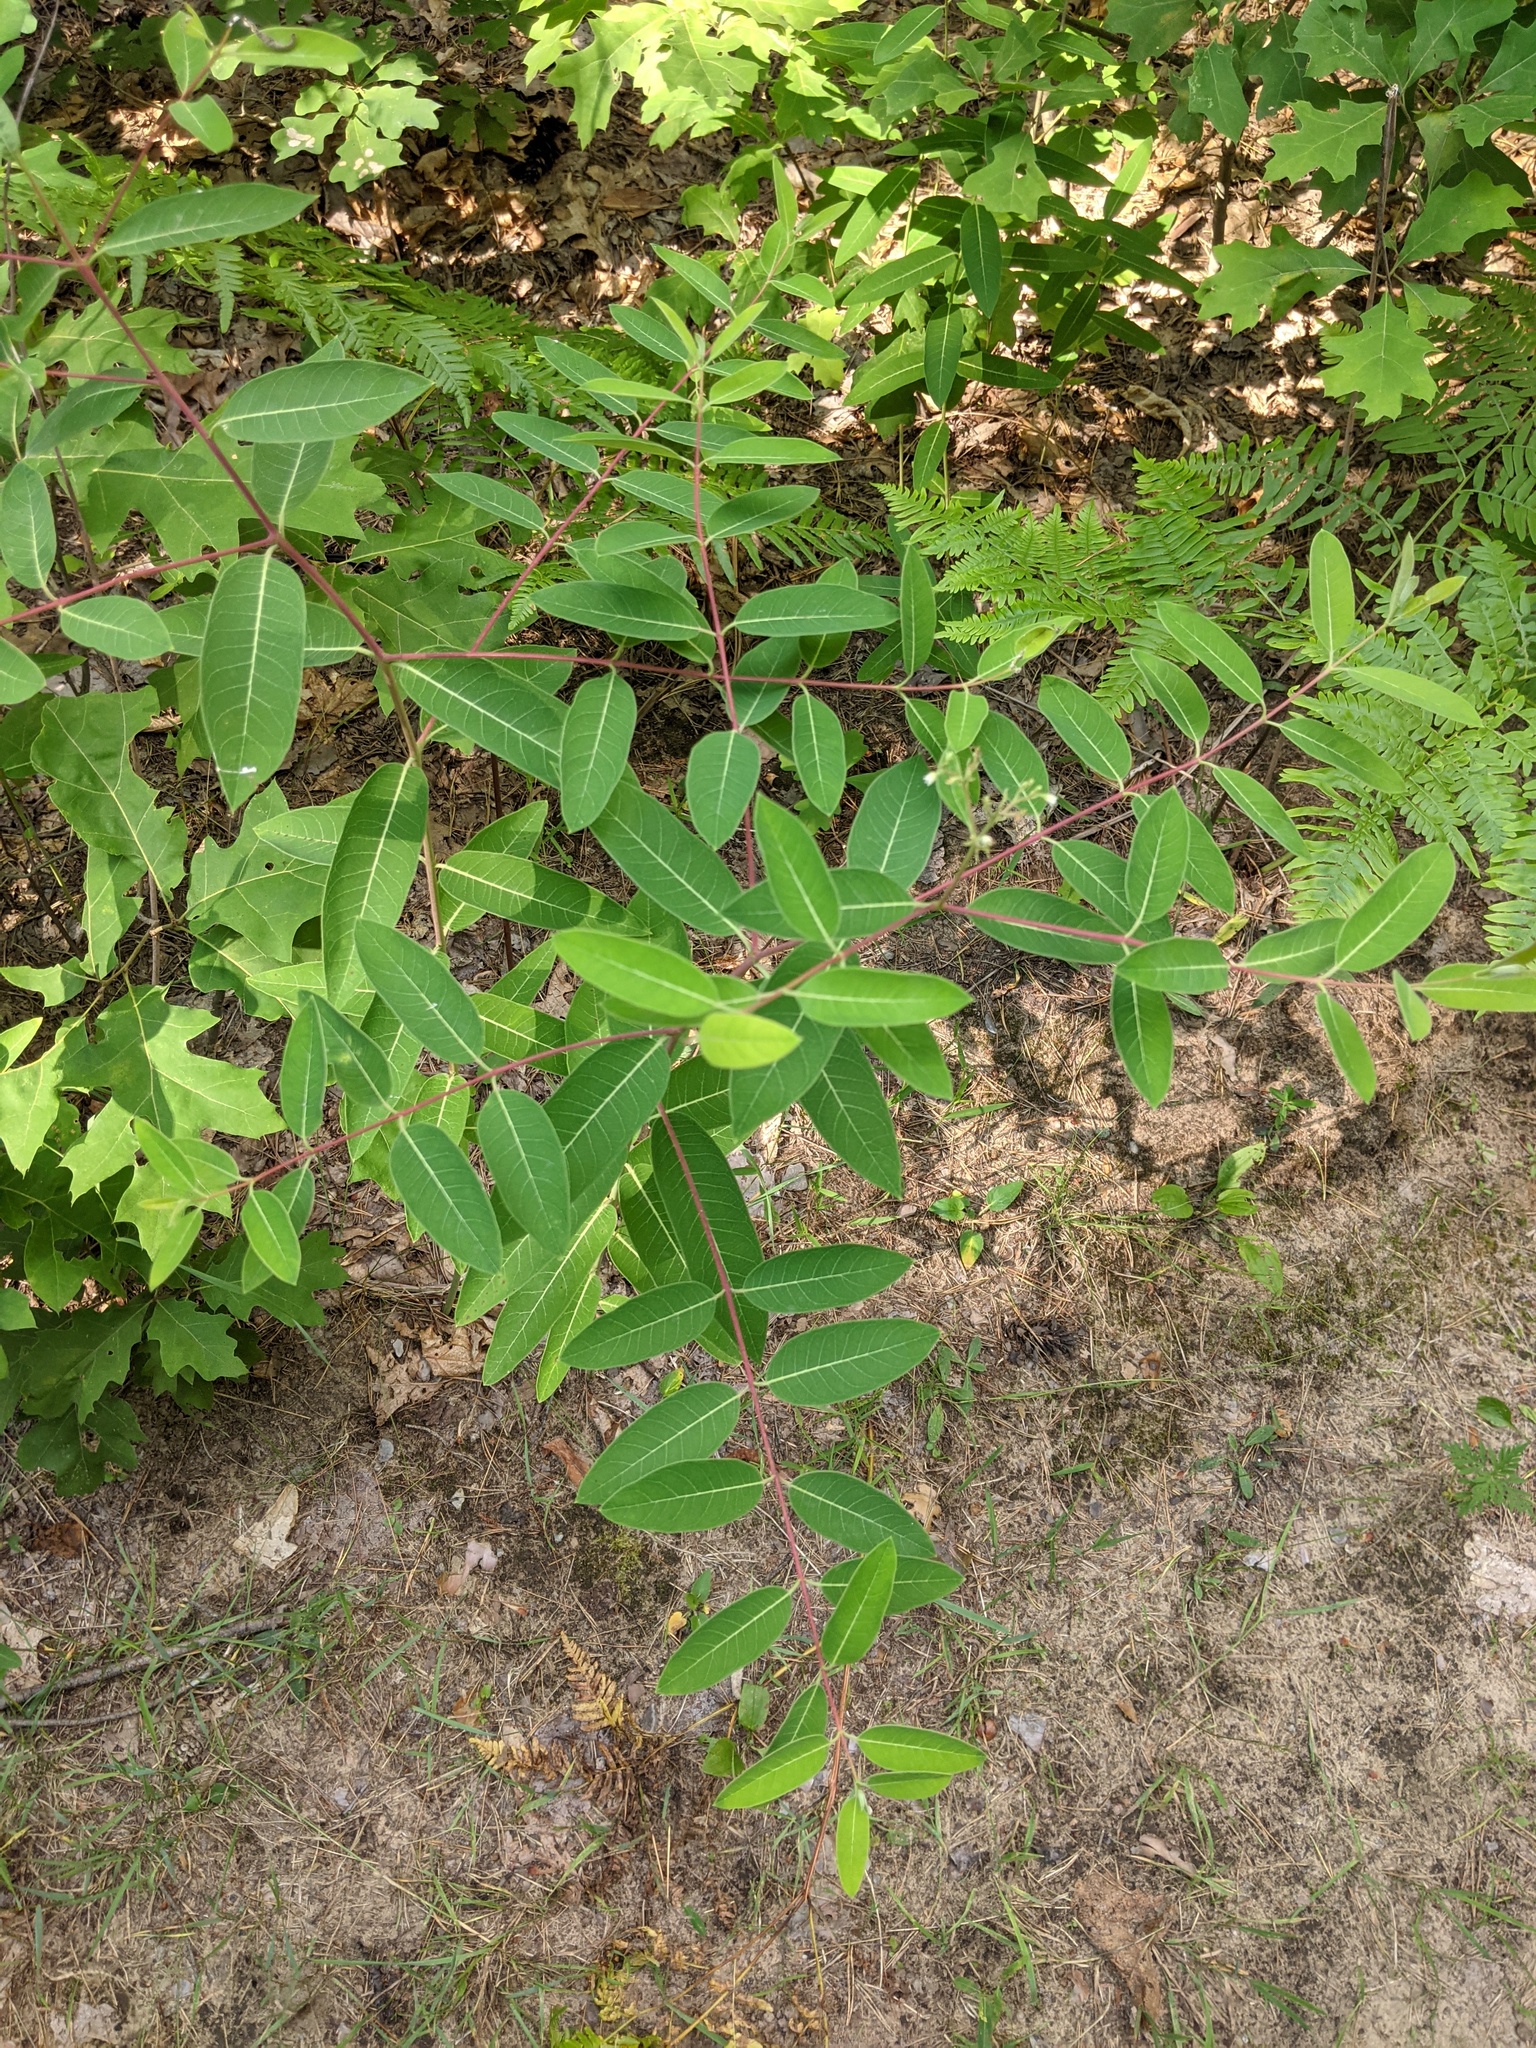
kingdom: Plantae
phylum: Tracheophyta
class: Magnoliopsida
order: Gentianales
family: Apocynaceae
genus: Apocynum
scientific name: Apocynum androsaemifolium
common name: Spreading dogbane
